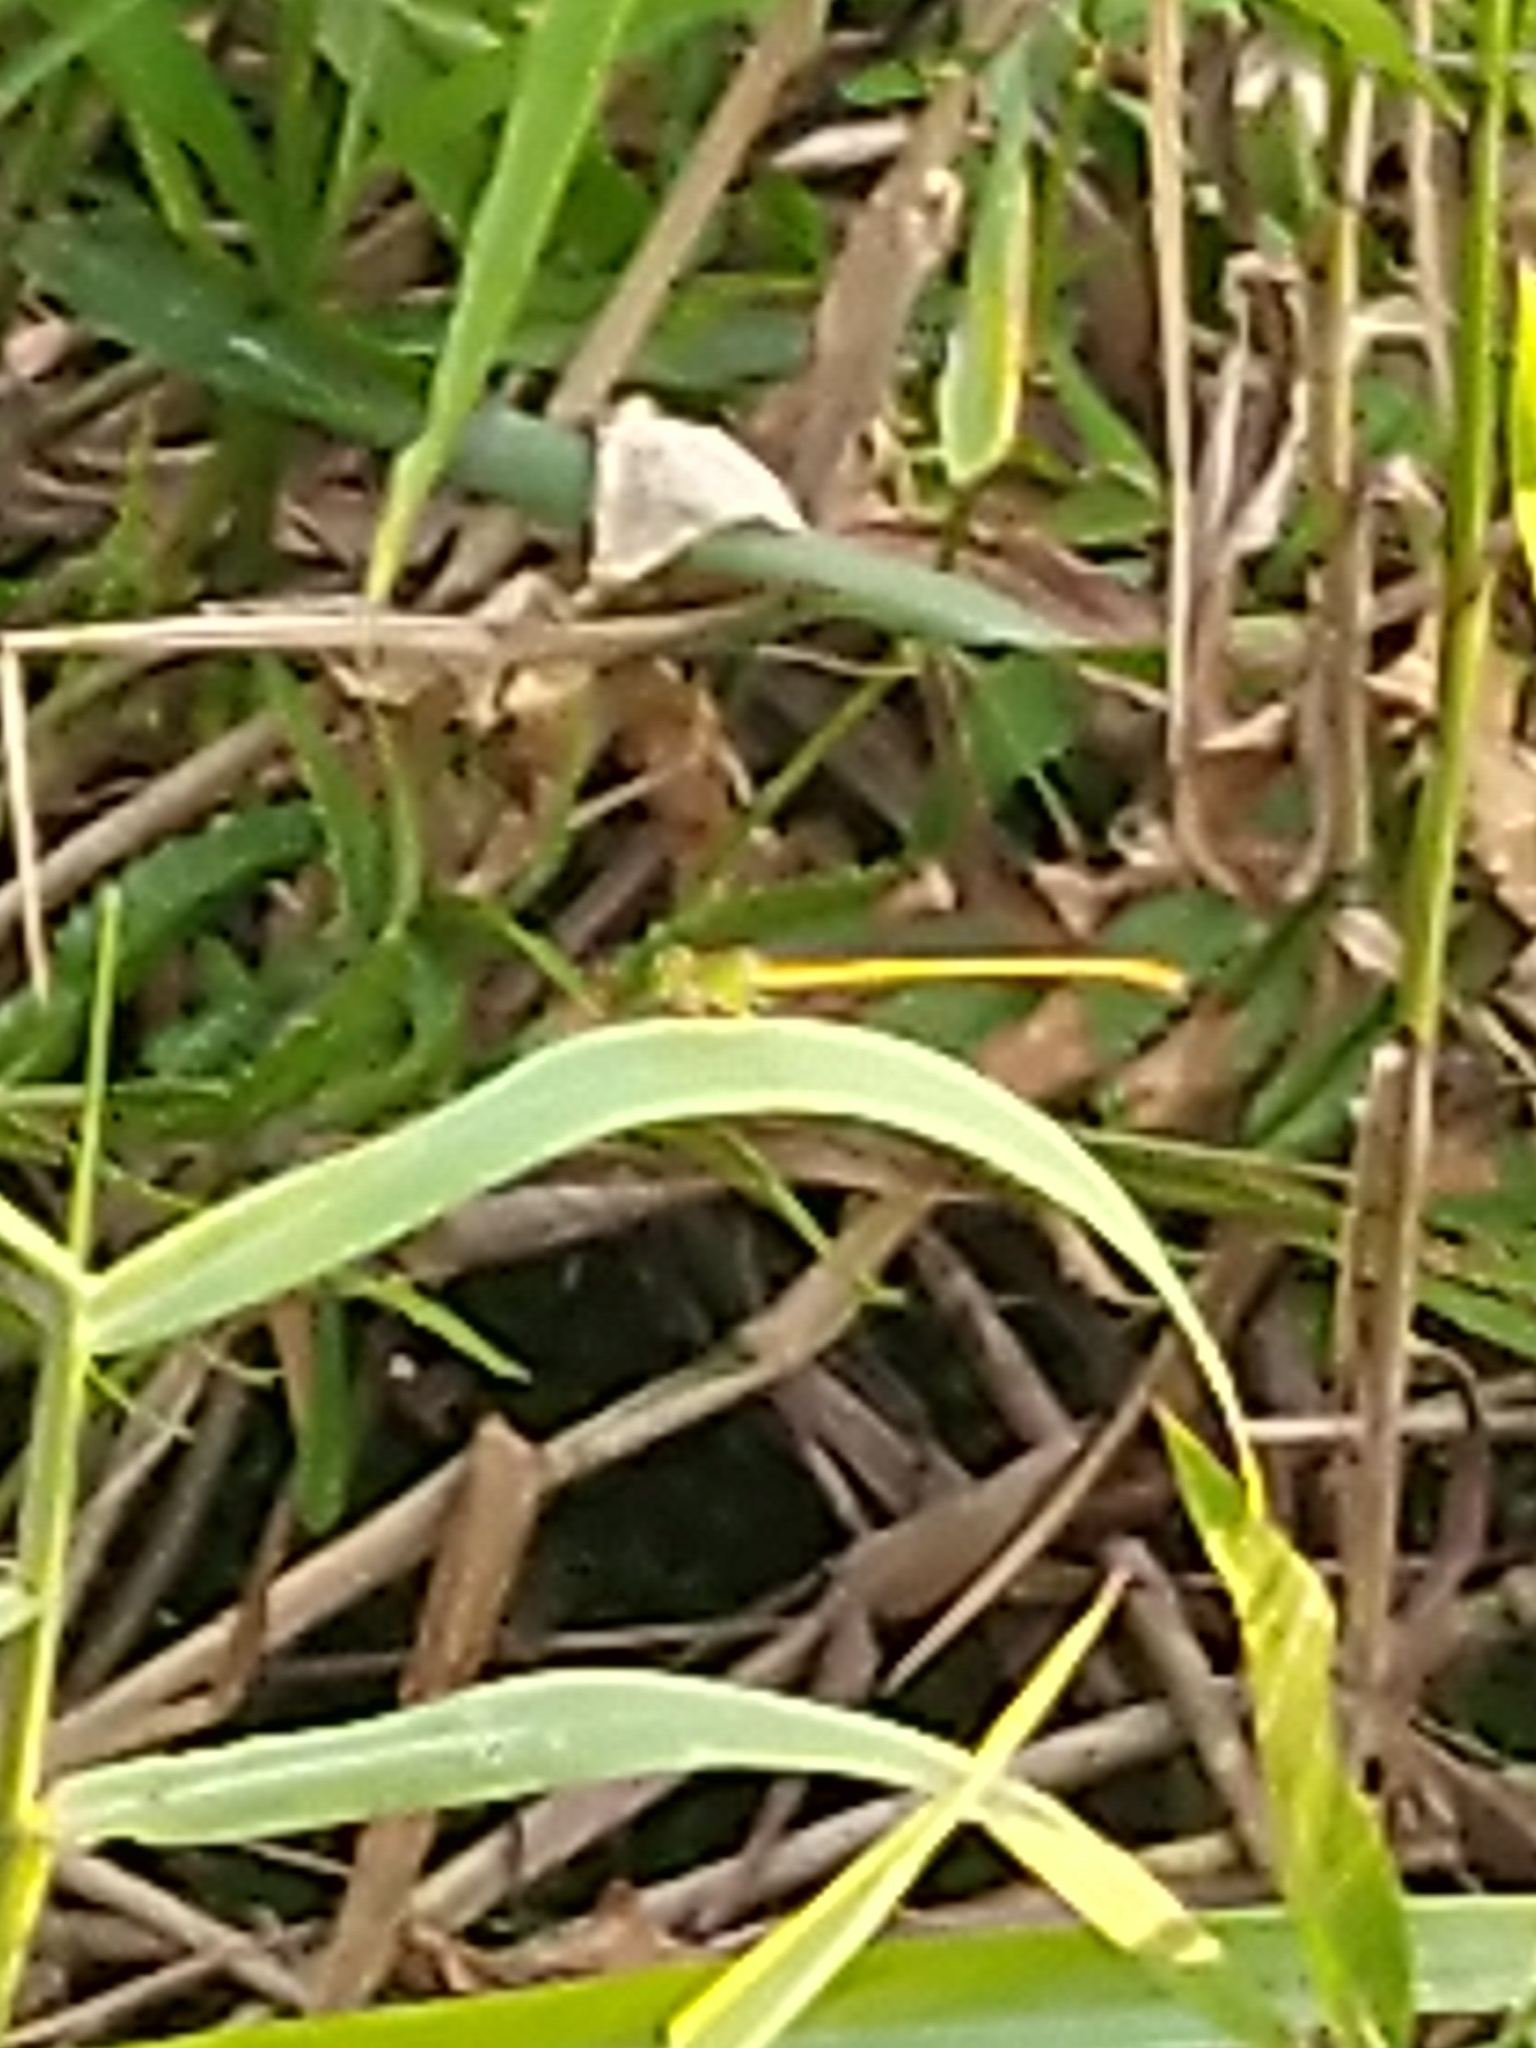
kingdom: Animalia
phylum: Arthropoda
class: Insecta
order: Odonata
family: Coenagrionidae
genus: Ceriagrion
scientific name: Ceriagrion coromandelianum
